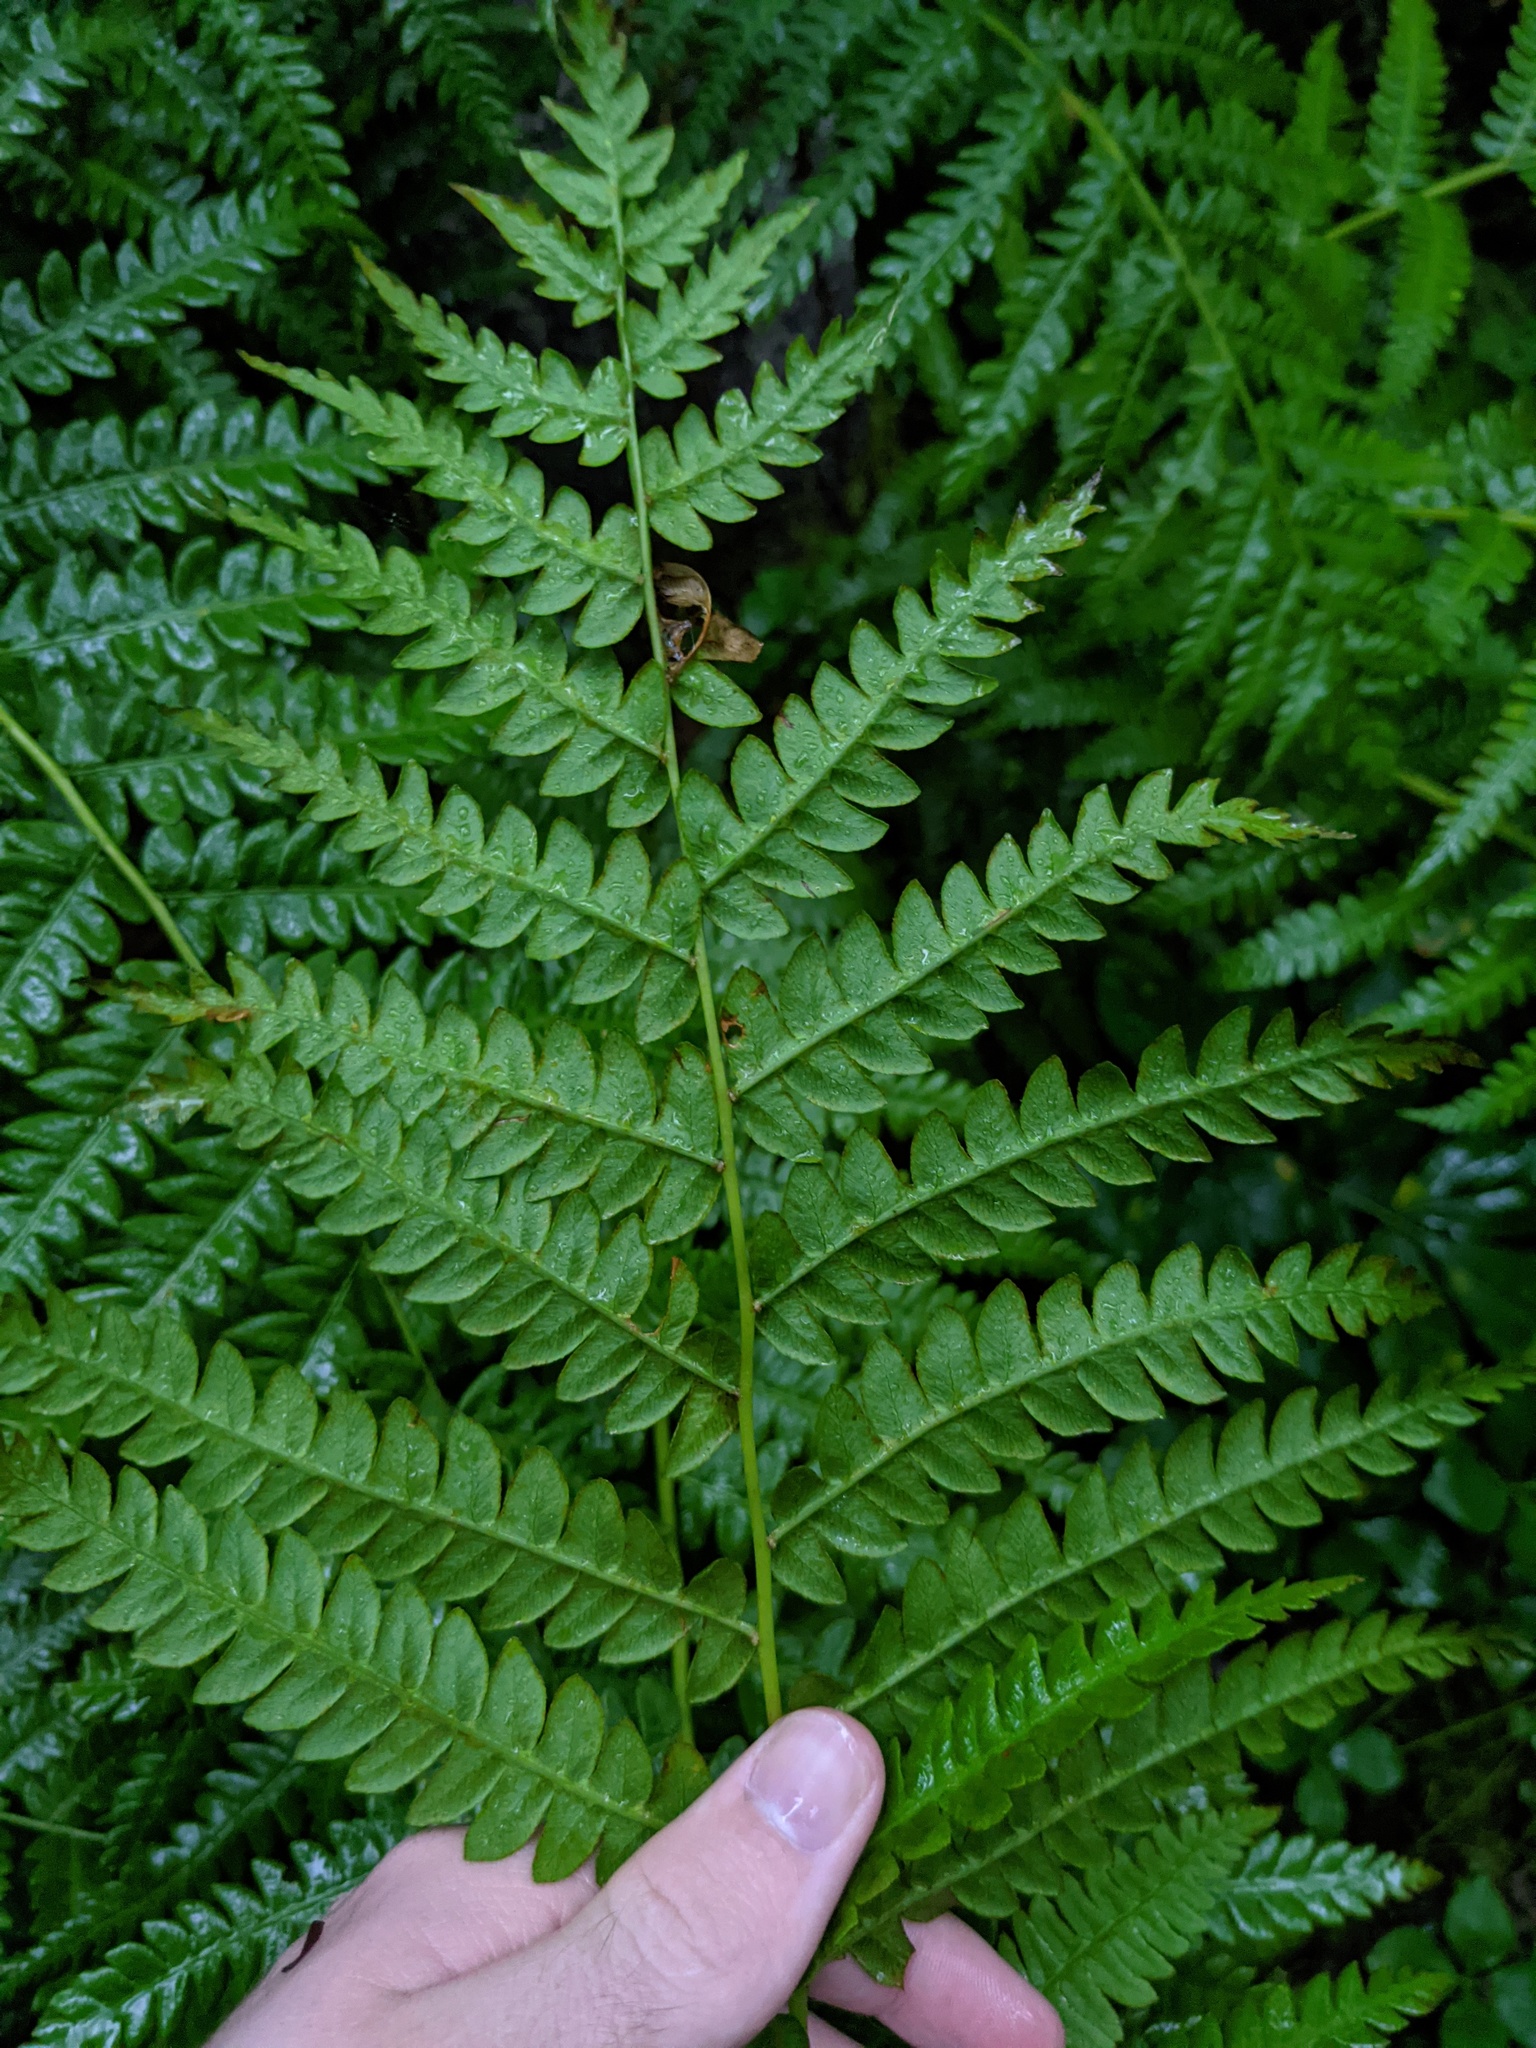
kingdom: Plantae
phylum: Tracheophyta
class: Polypodiopsida
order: Osmundales
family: Osmundaceae
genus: Osmundastrum
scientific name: Osmundastrum cinnamomeum
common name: Cinnamon fern
